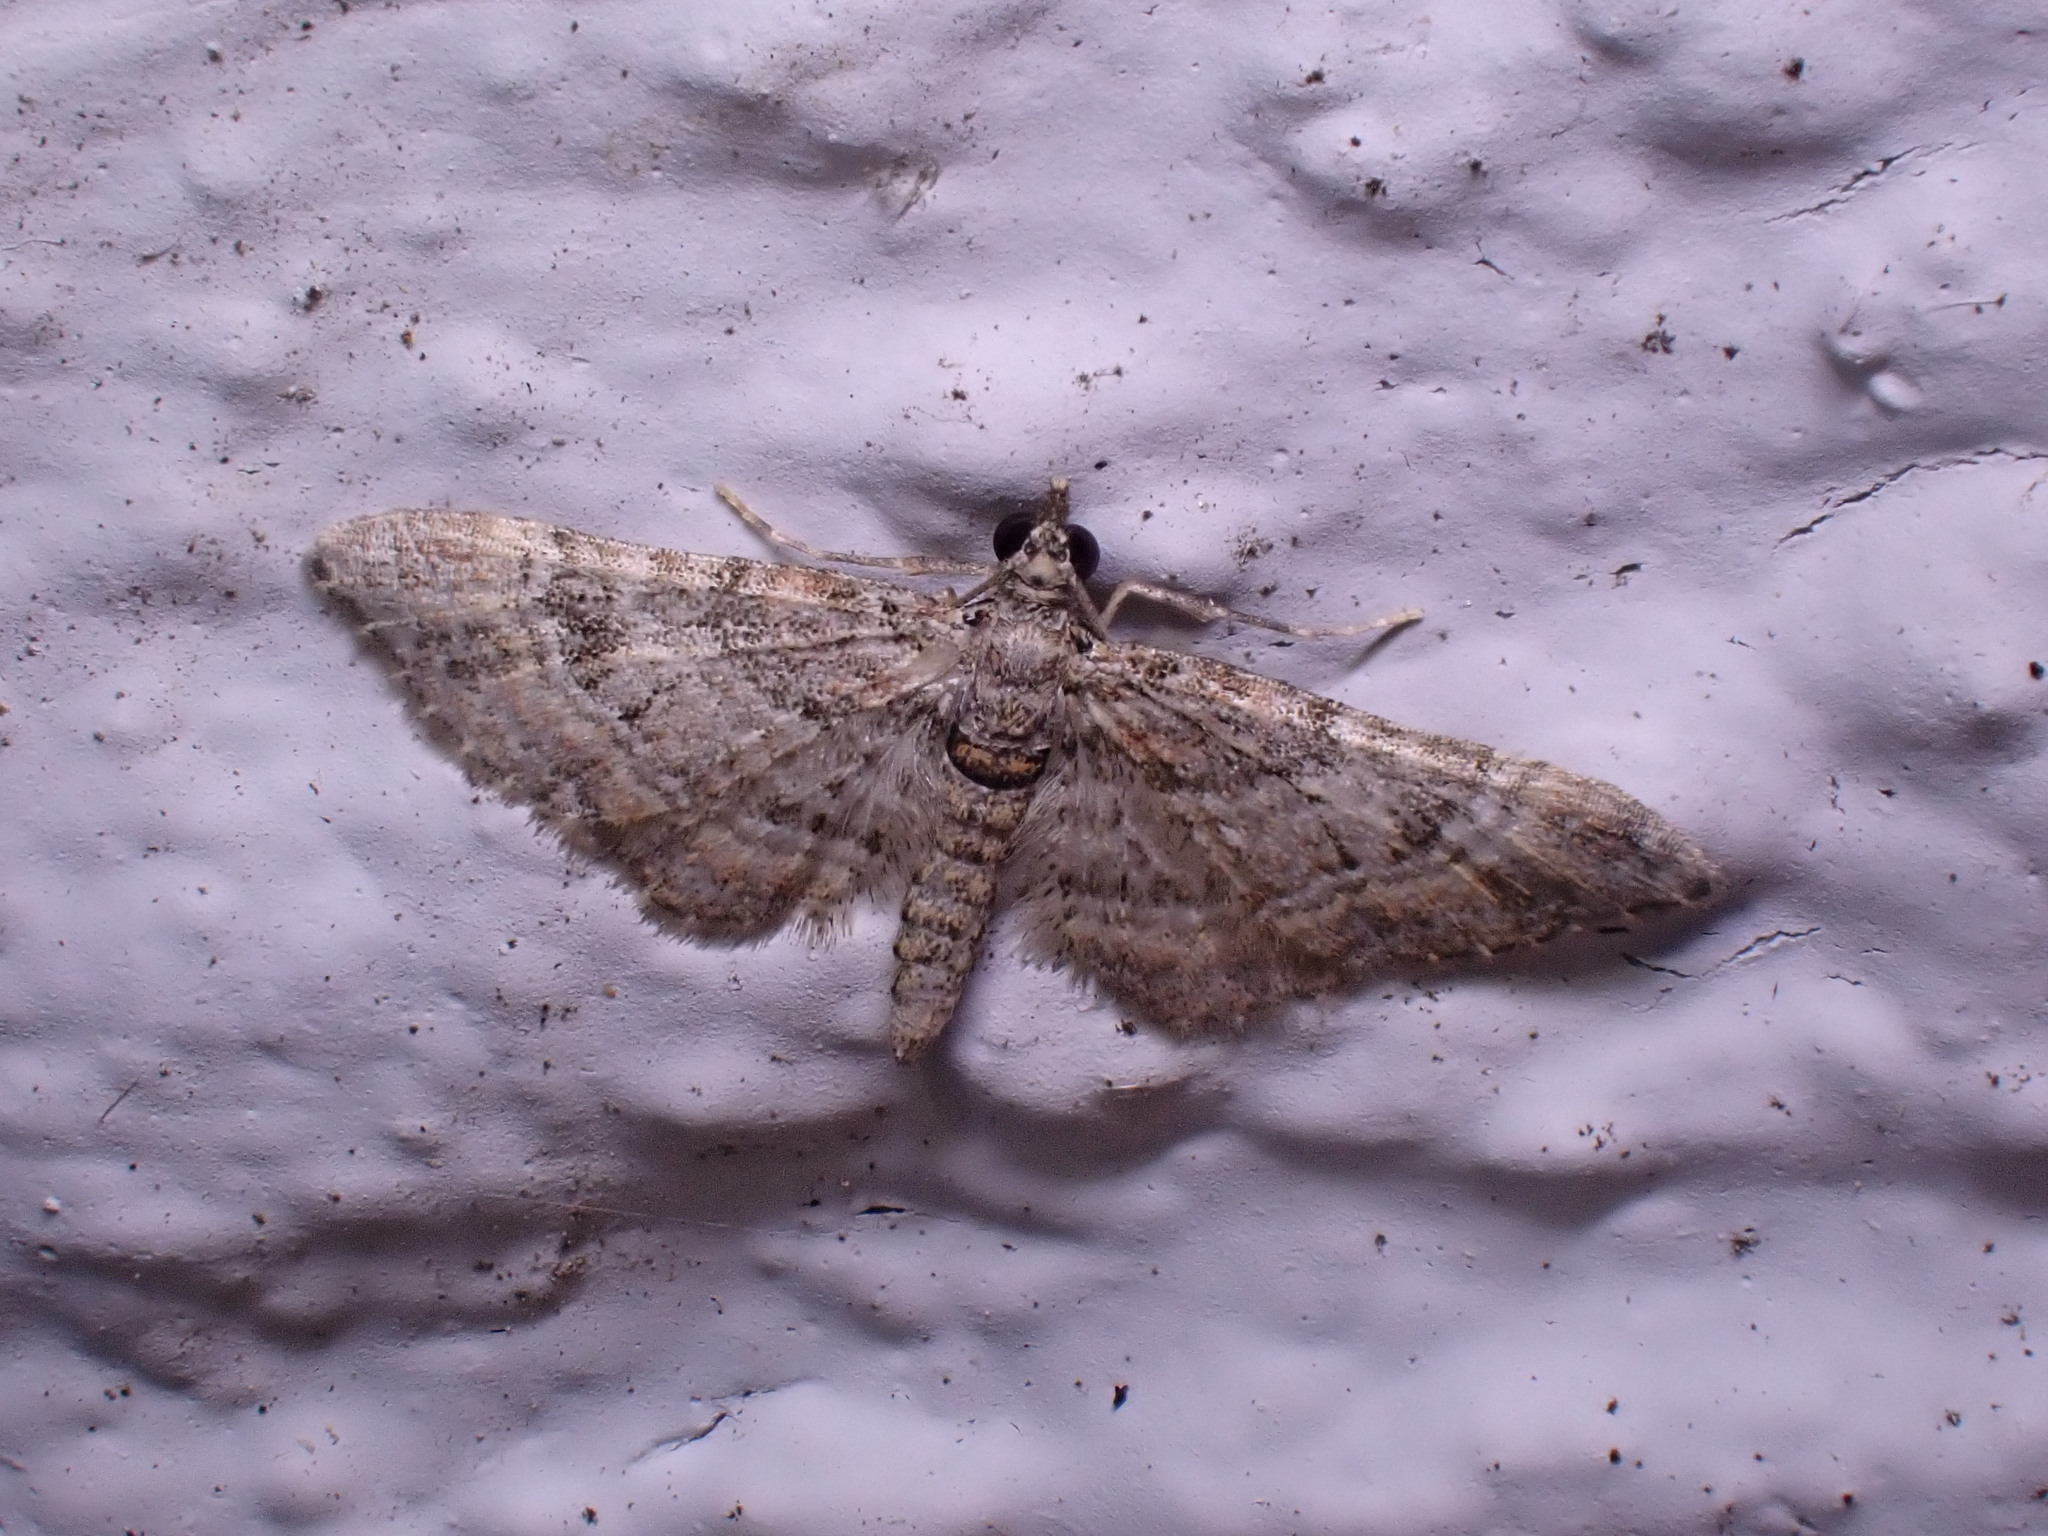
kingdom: Animalia
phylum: Arthropoda
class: Insecta
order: Lepidoptera
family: Geometridae
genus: Gymnoscelis
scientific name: Gymnoscelis rufifasciata
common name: Double-striped pug
